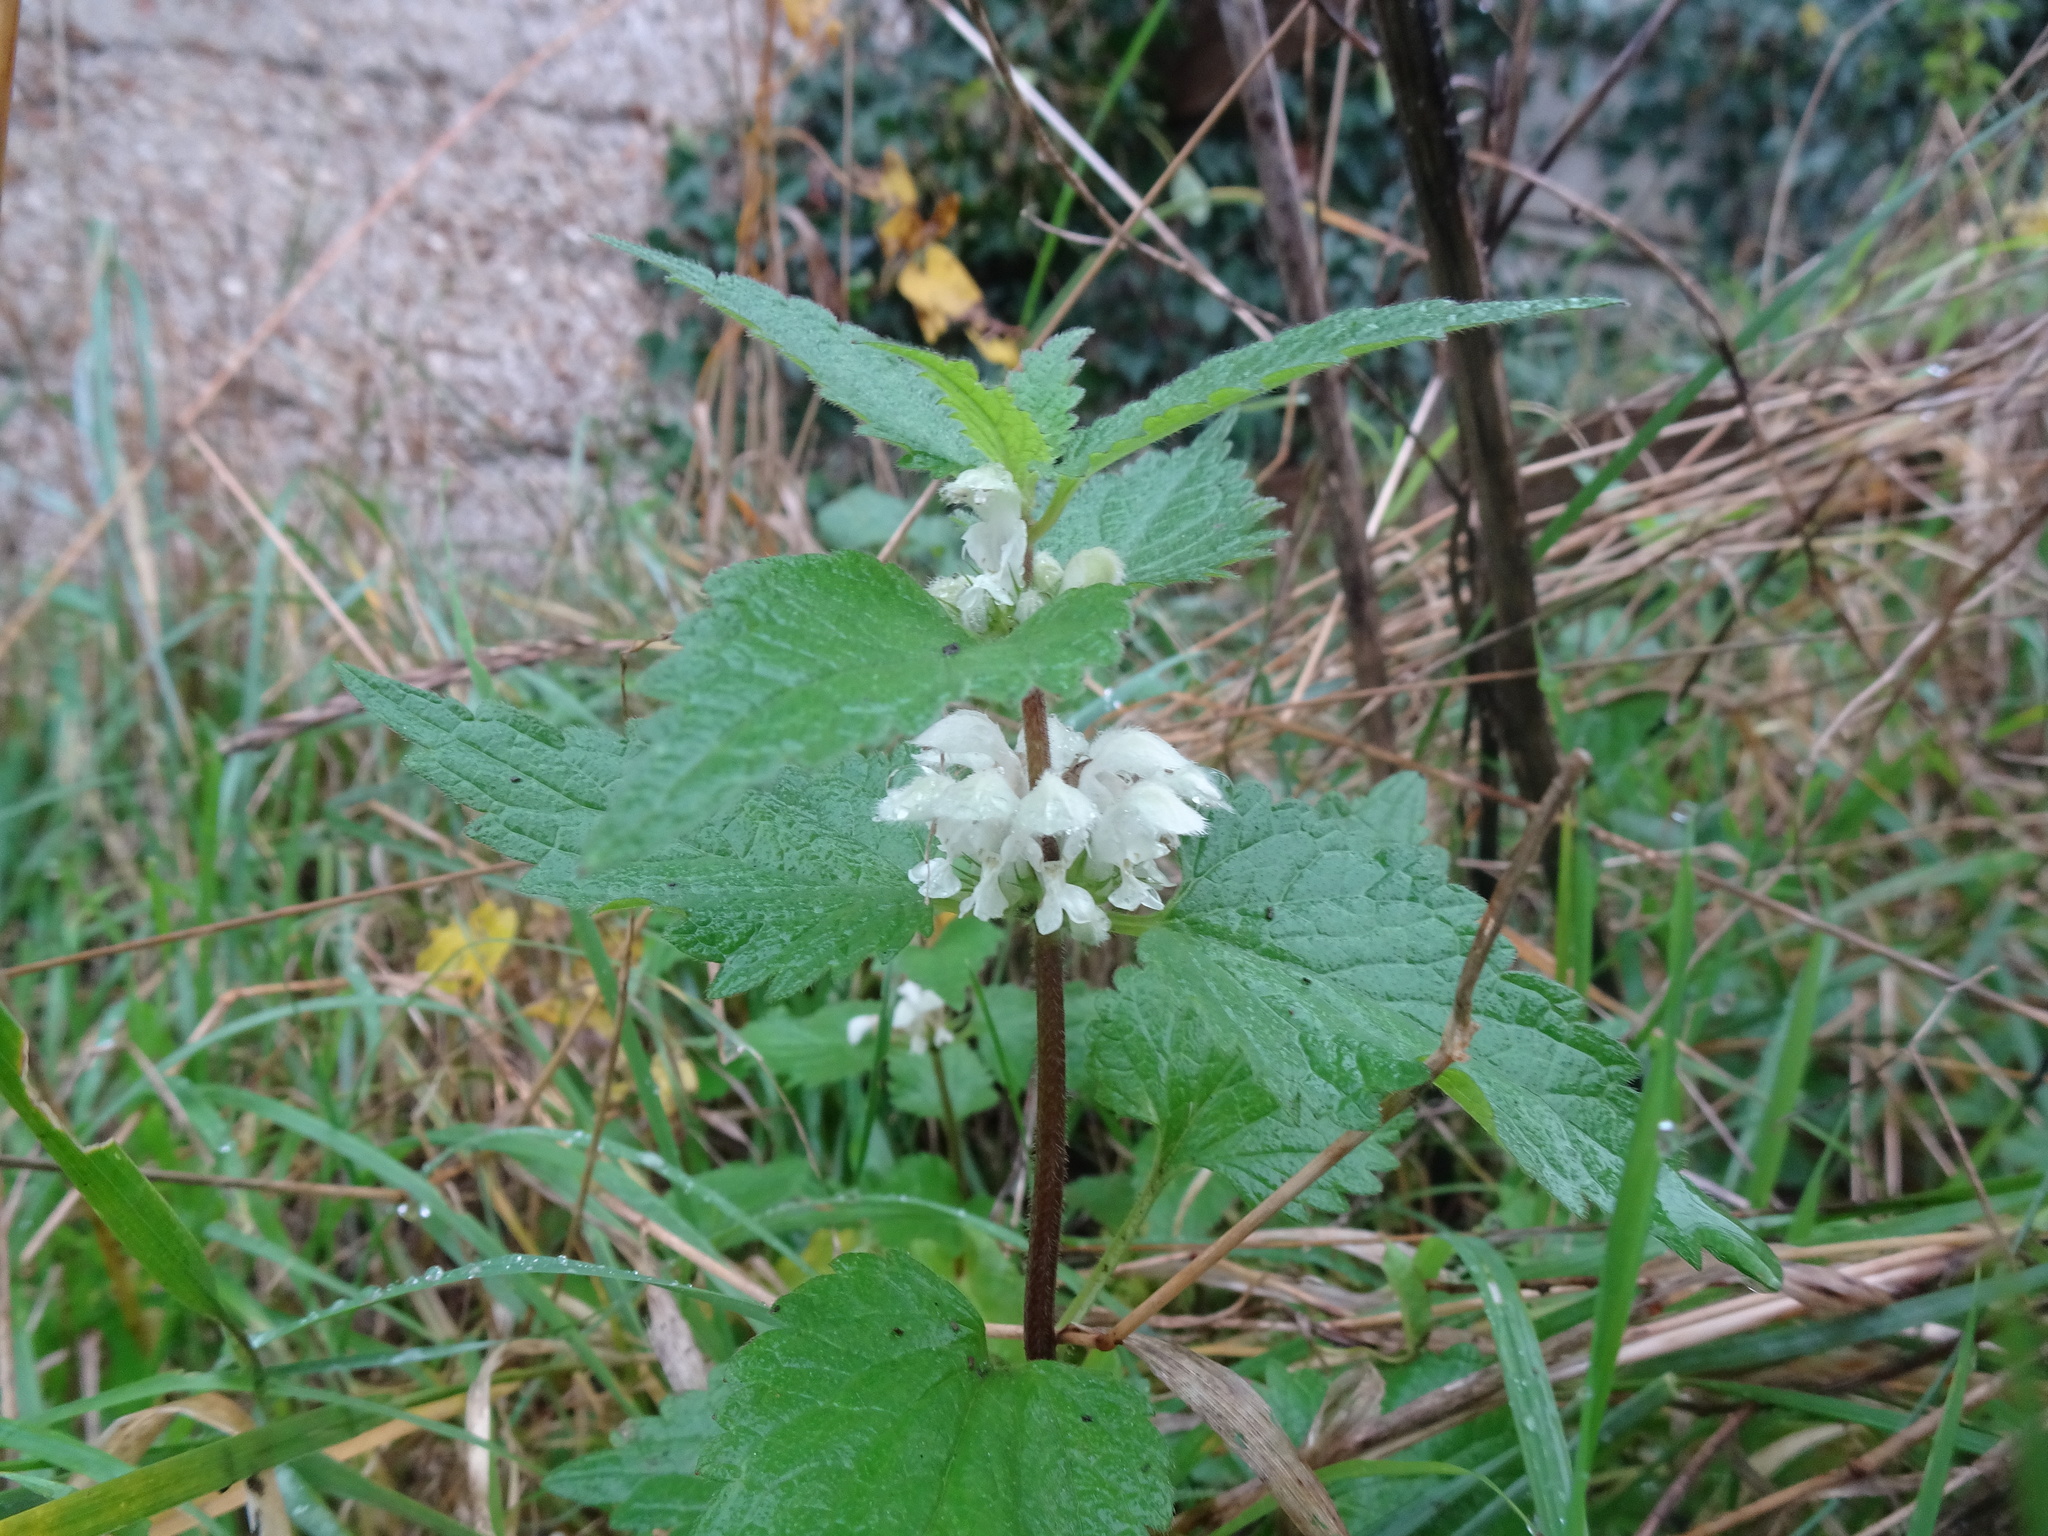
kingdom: Plantae
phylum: Tracheophyta
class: Magnoliopsida
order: Lamiales
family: Lamiaceae
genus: Lamium
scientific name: Lamium album
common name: White dead-nettle
